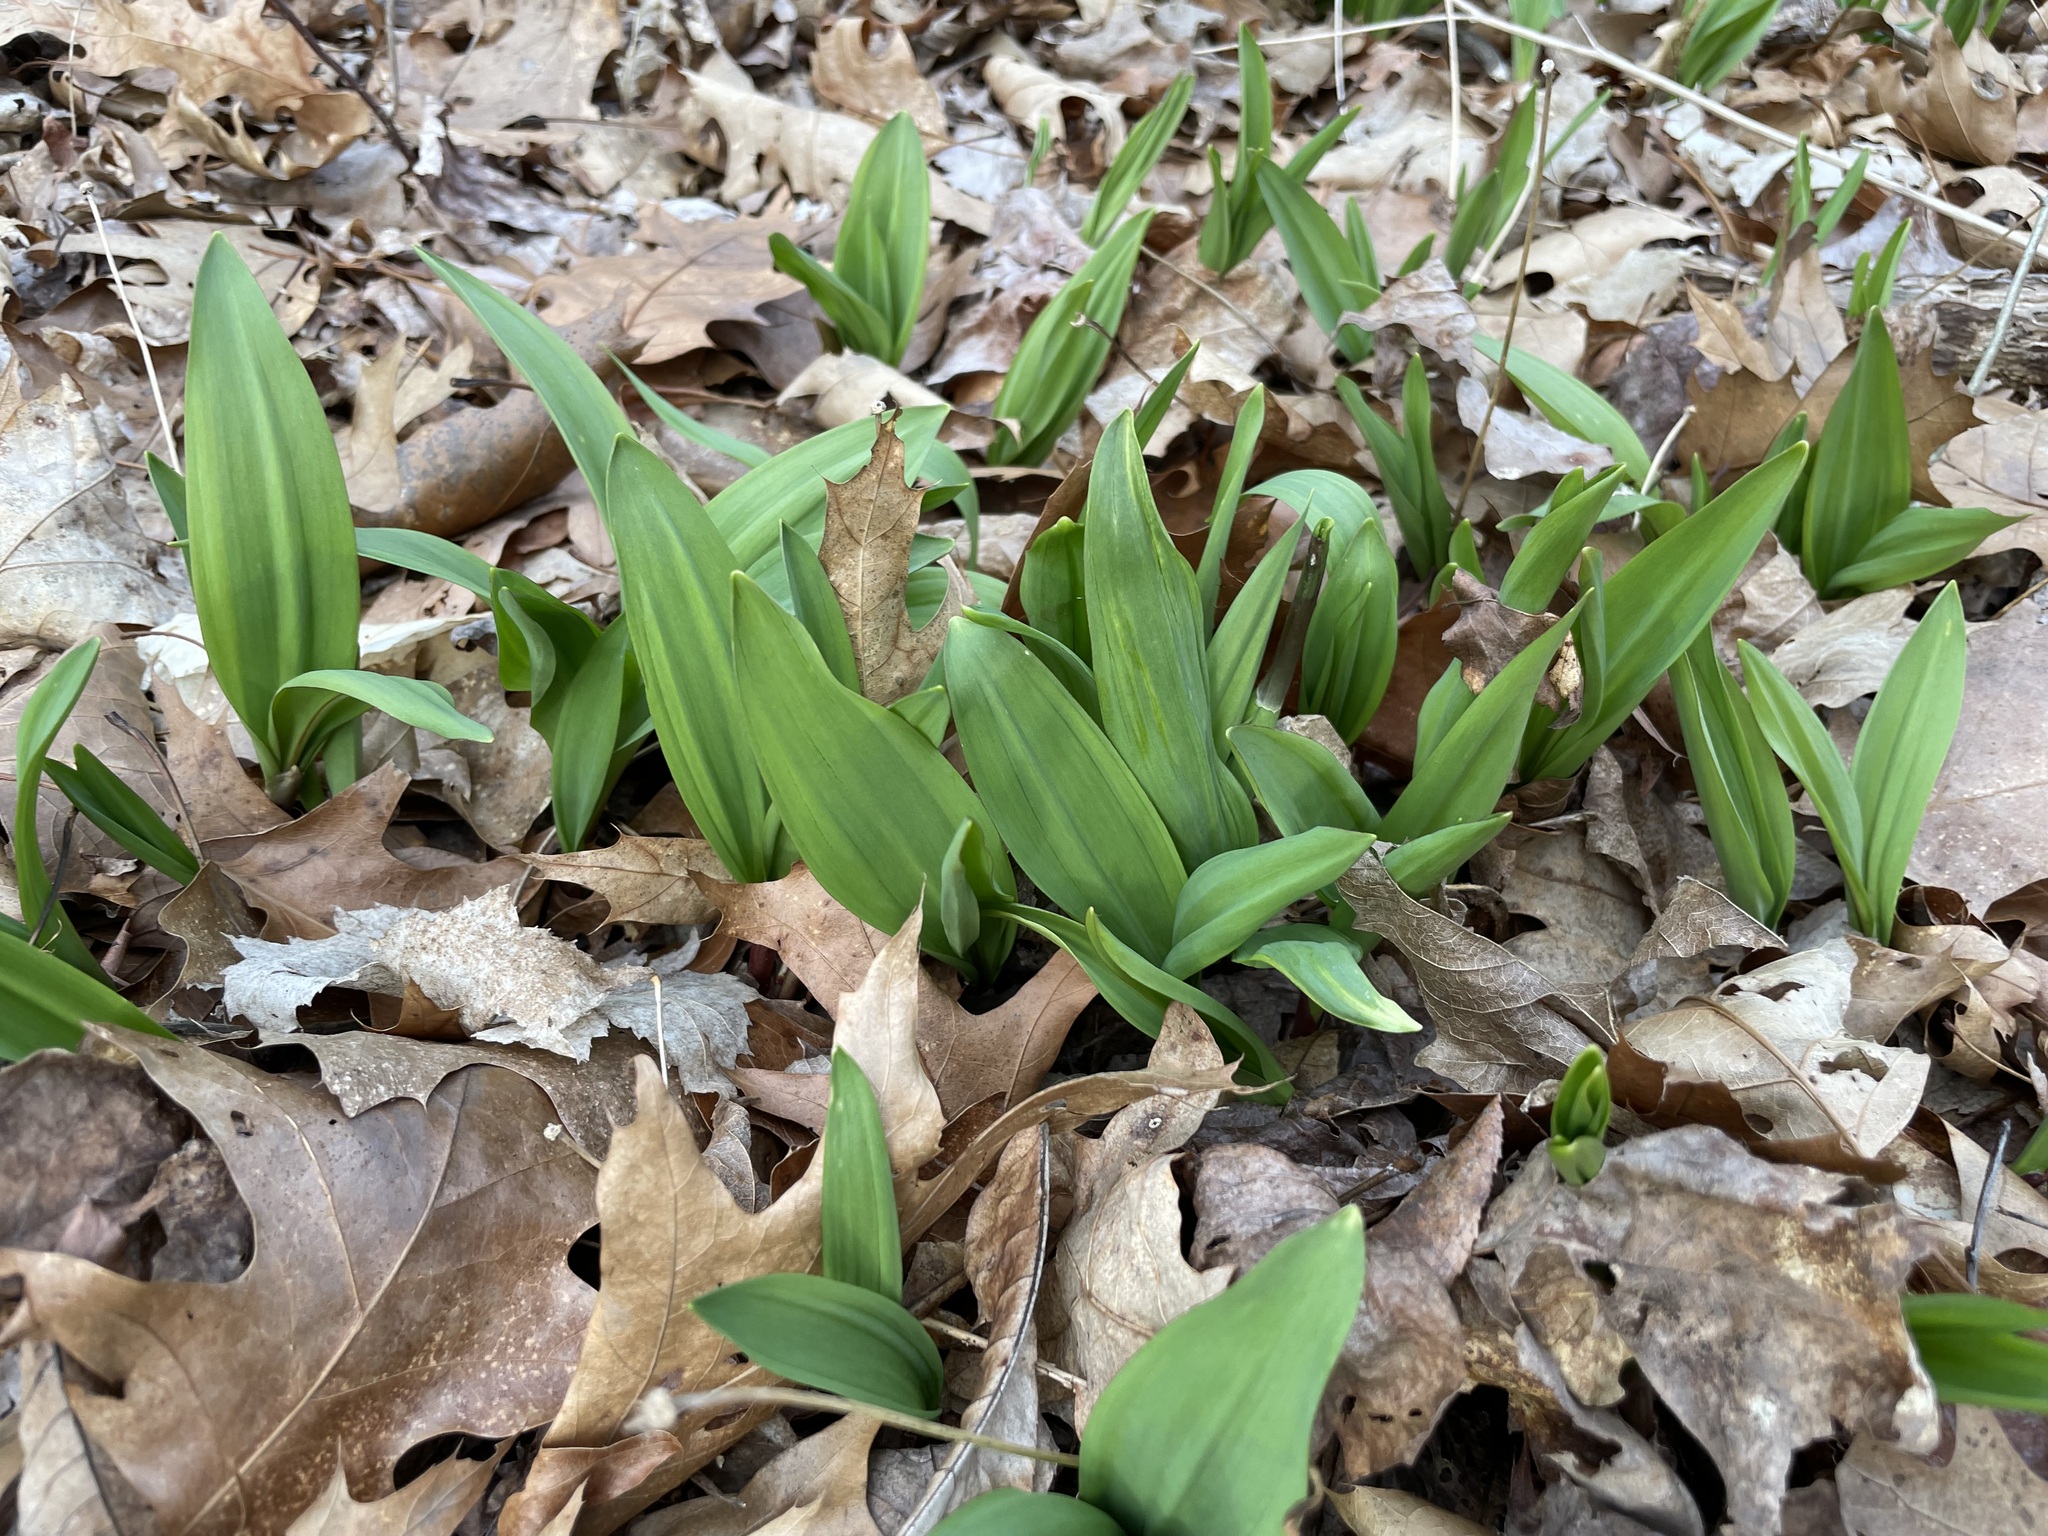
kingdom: Plantae
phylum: Tracheophyta
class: Liliopsida
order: Asparagales
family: Amaryllidaceae
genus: Allium
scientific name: Allium tricoccum
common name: Ramp
